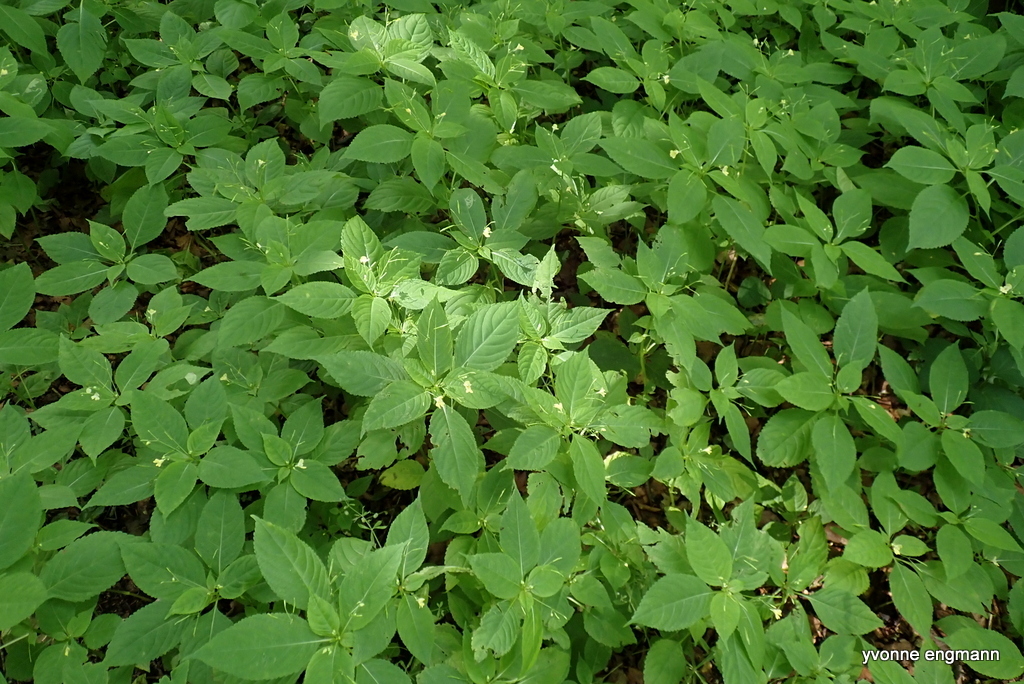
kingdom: Plantae
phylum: Tracheophyta
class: Magnoliopsida
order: Ericales
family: Balsaminaceae
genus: Impatiens
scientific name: Impatiens parviflora
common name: Small balsam
